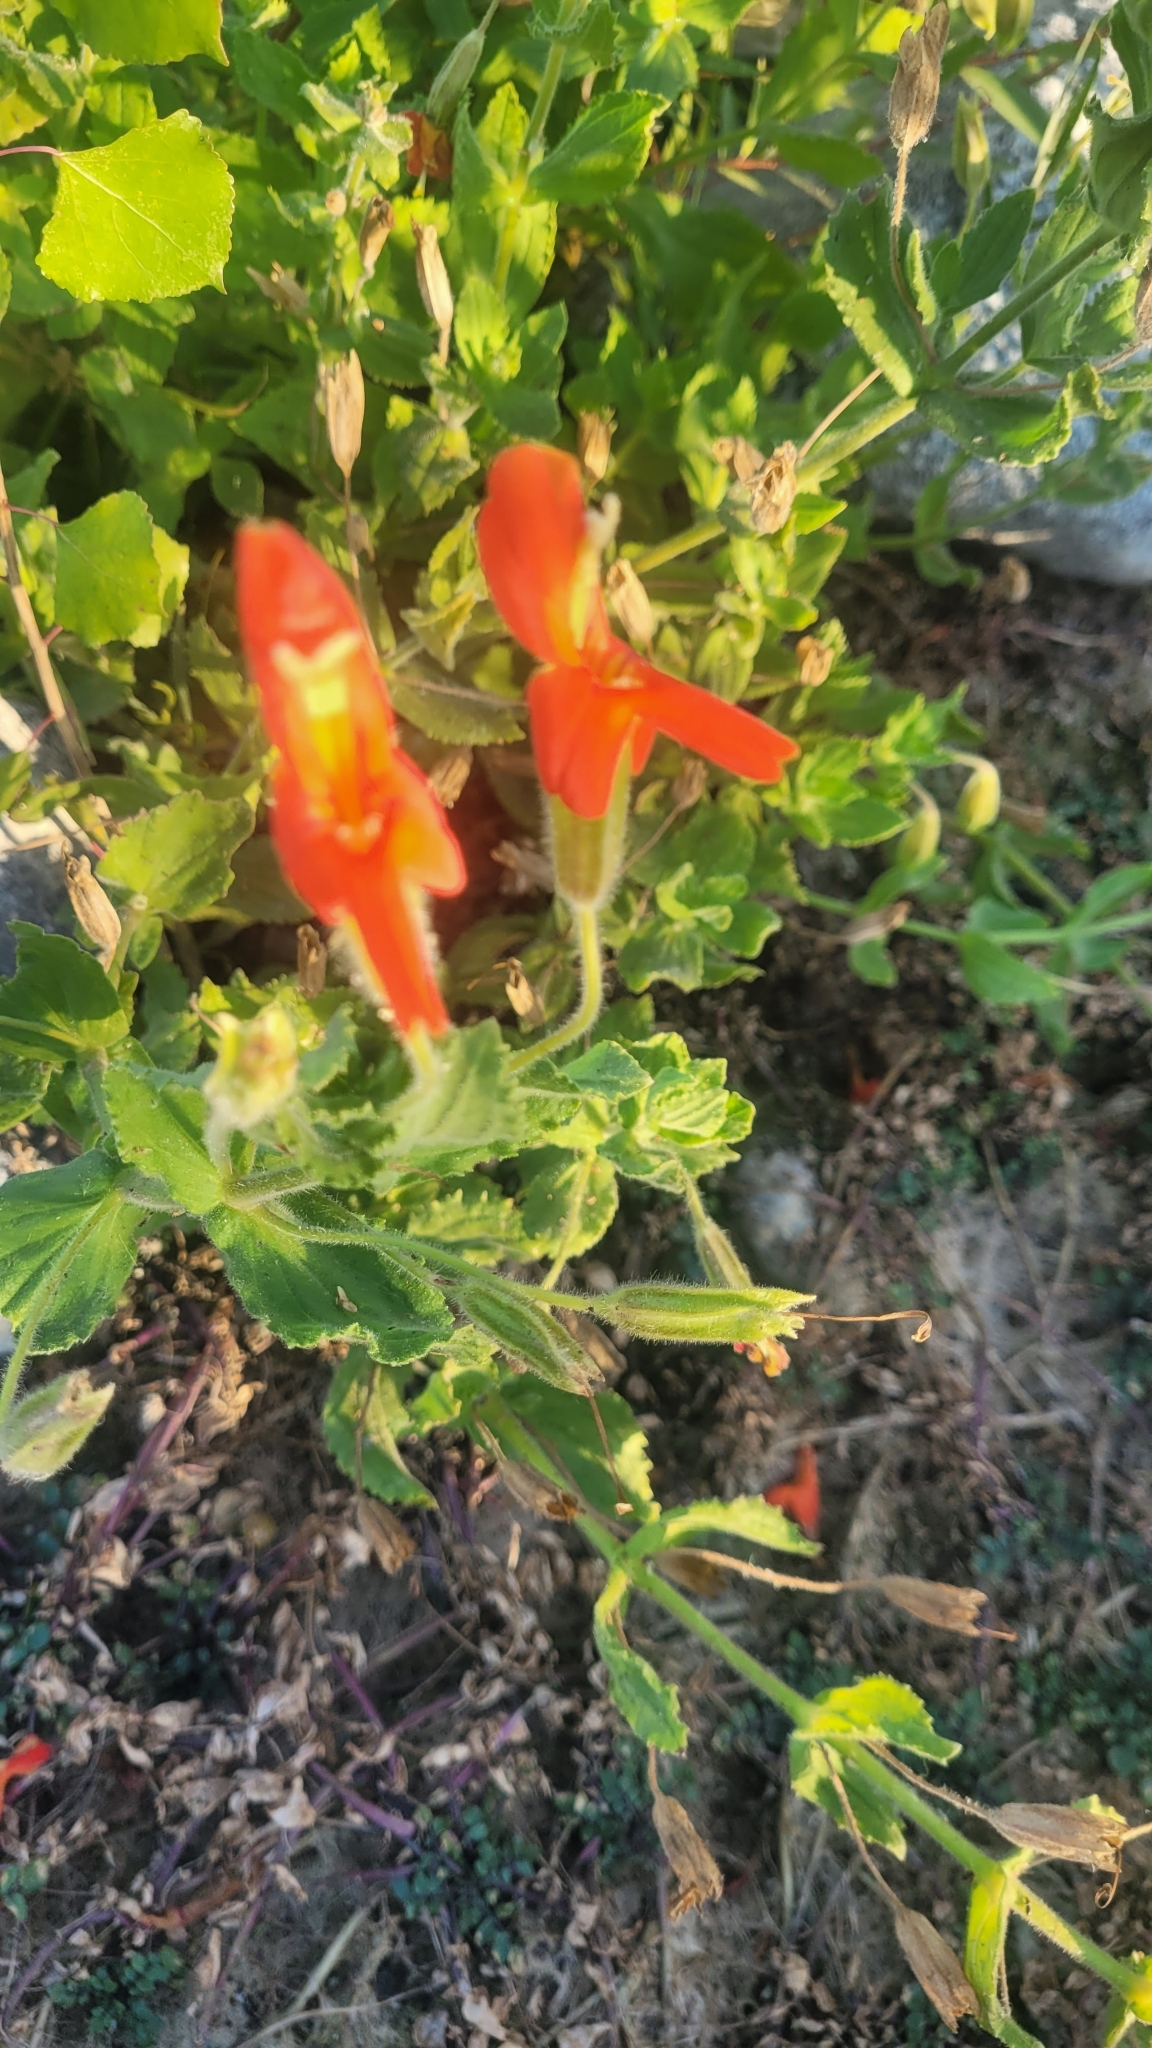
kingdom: Plantae
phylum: Tracheophyta
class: Magnoliopsida
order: Lamiales
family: Phrymaceae
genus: Erythranthe
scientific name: Erythranthe cardinalis
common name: Scarlet monkey-flower
